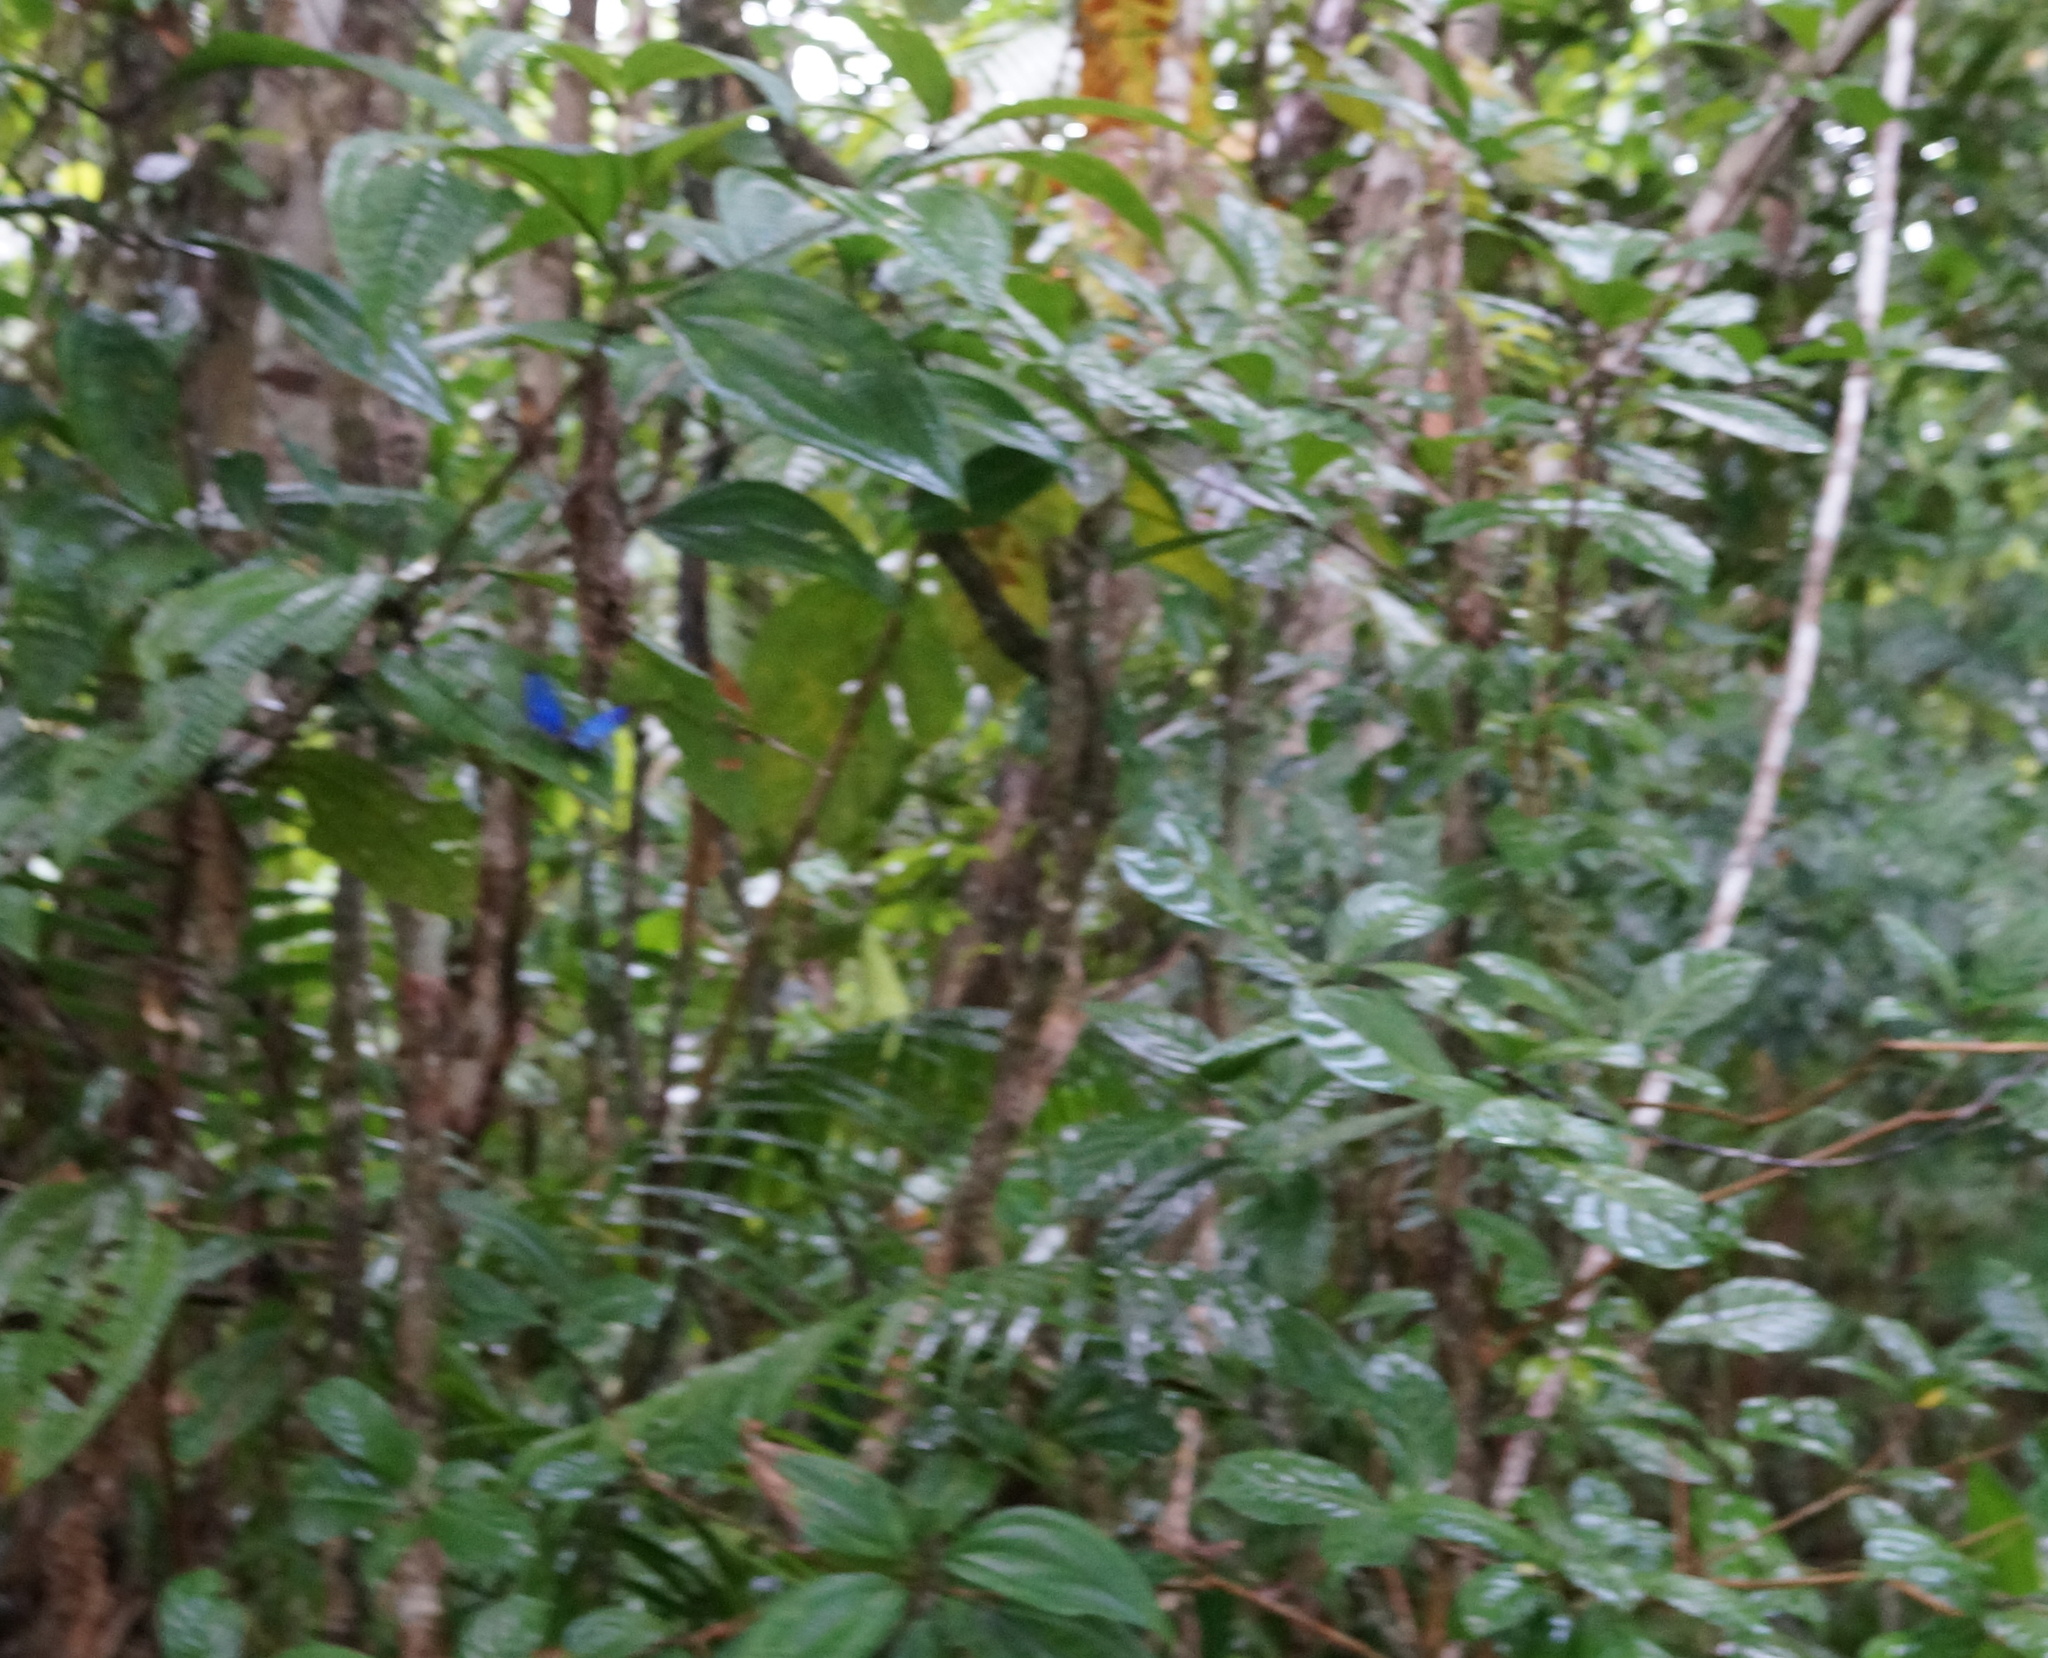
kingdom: Animalia
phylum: Arthropoda
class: Insecta
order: Lepidoptera
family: Nymphalidae
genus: Morpho
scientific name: Morpho menelaus
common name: Menelaus morpho
